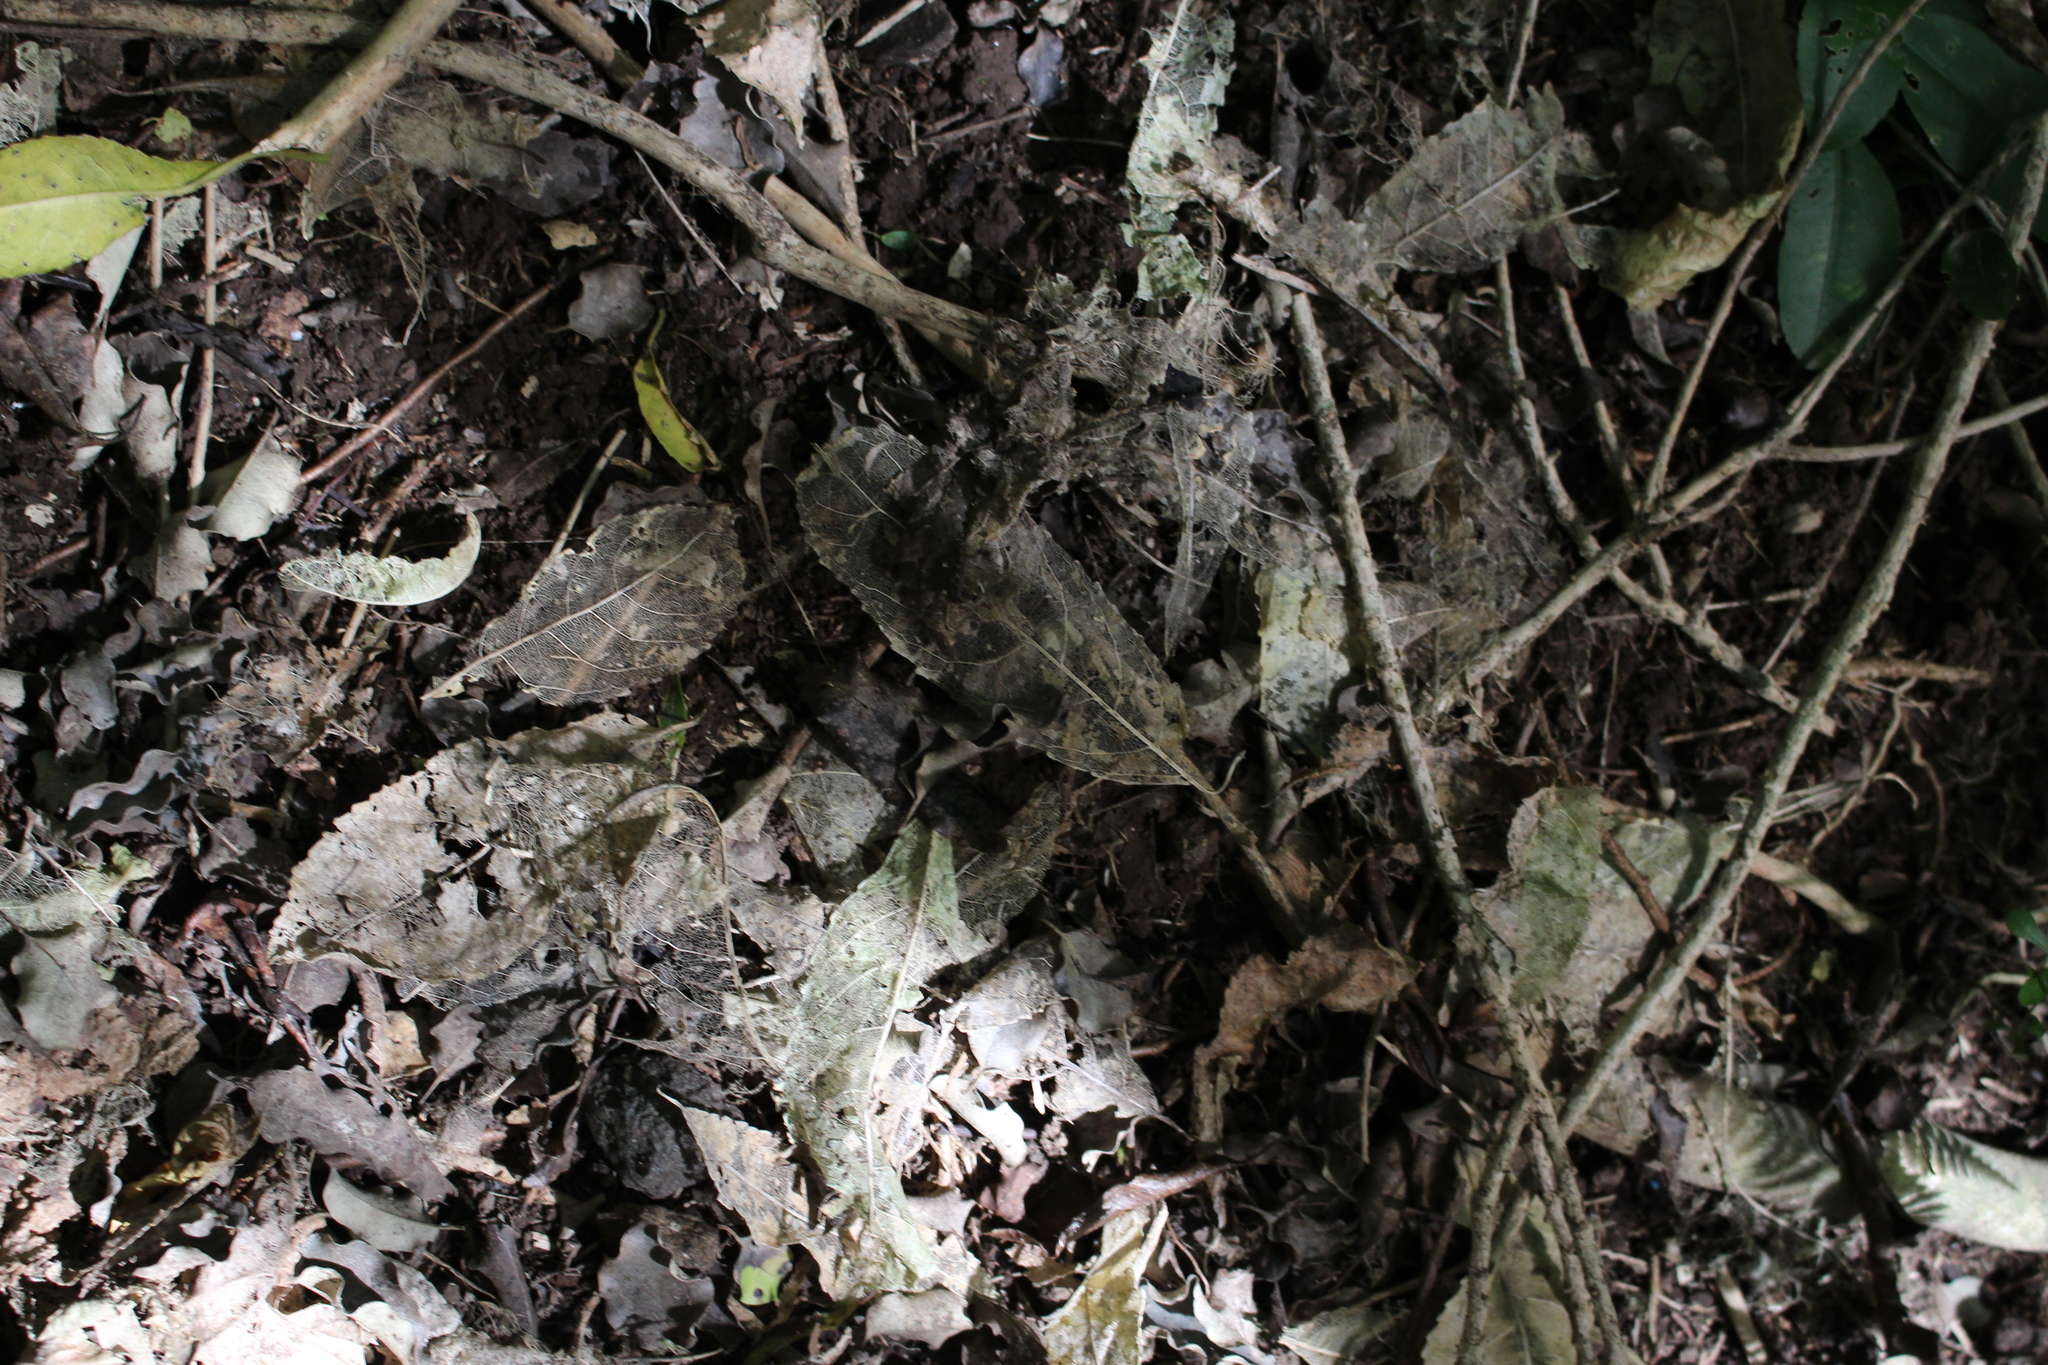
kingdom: Plantae
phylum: Tracheophyta
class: Magnoliopsida
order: Malpighiales
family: Violaceae
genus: Melicytus
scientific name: Melicytus ramiflorus
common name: Mahoe
